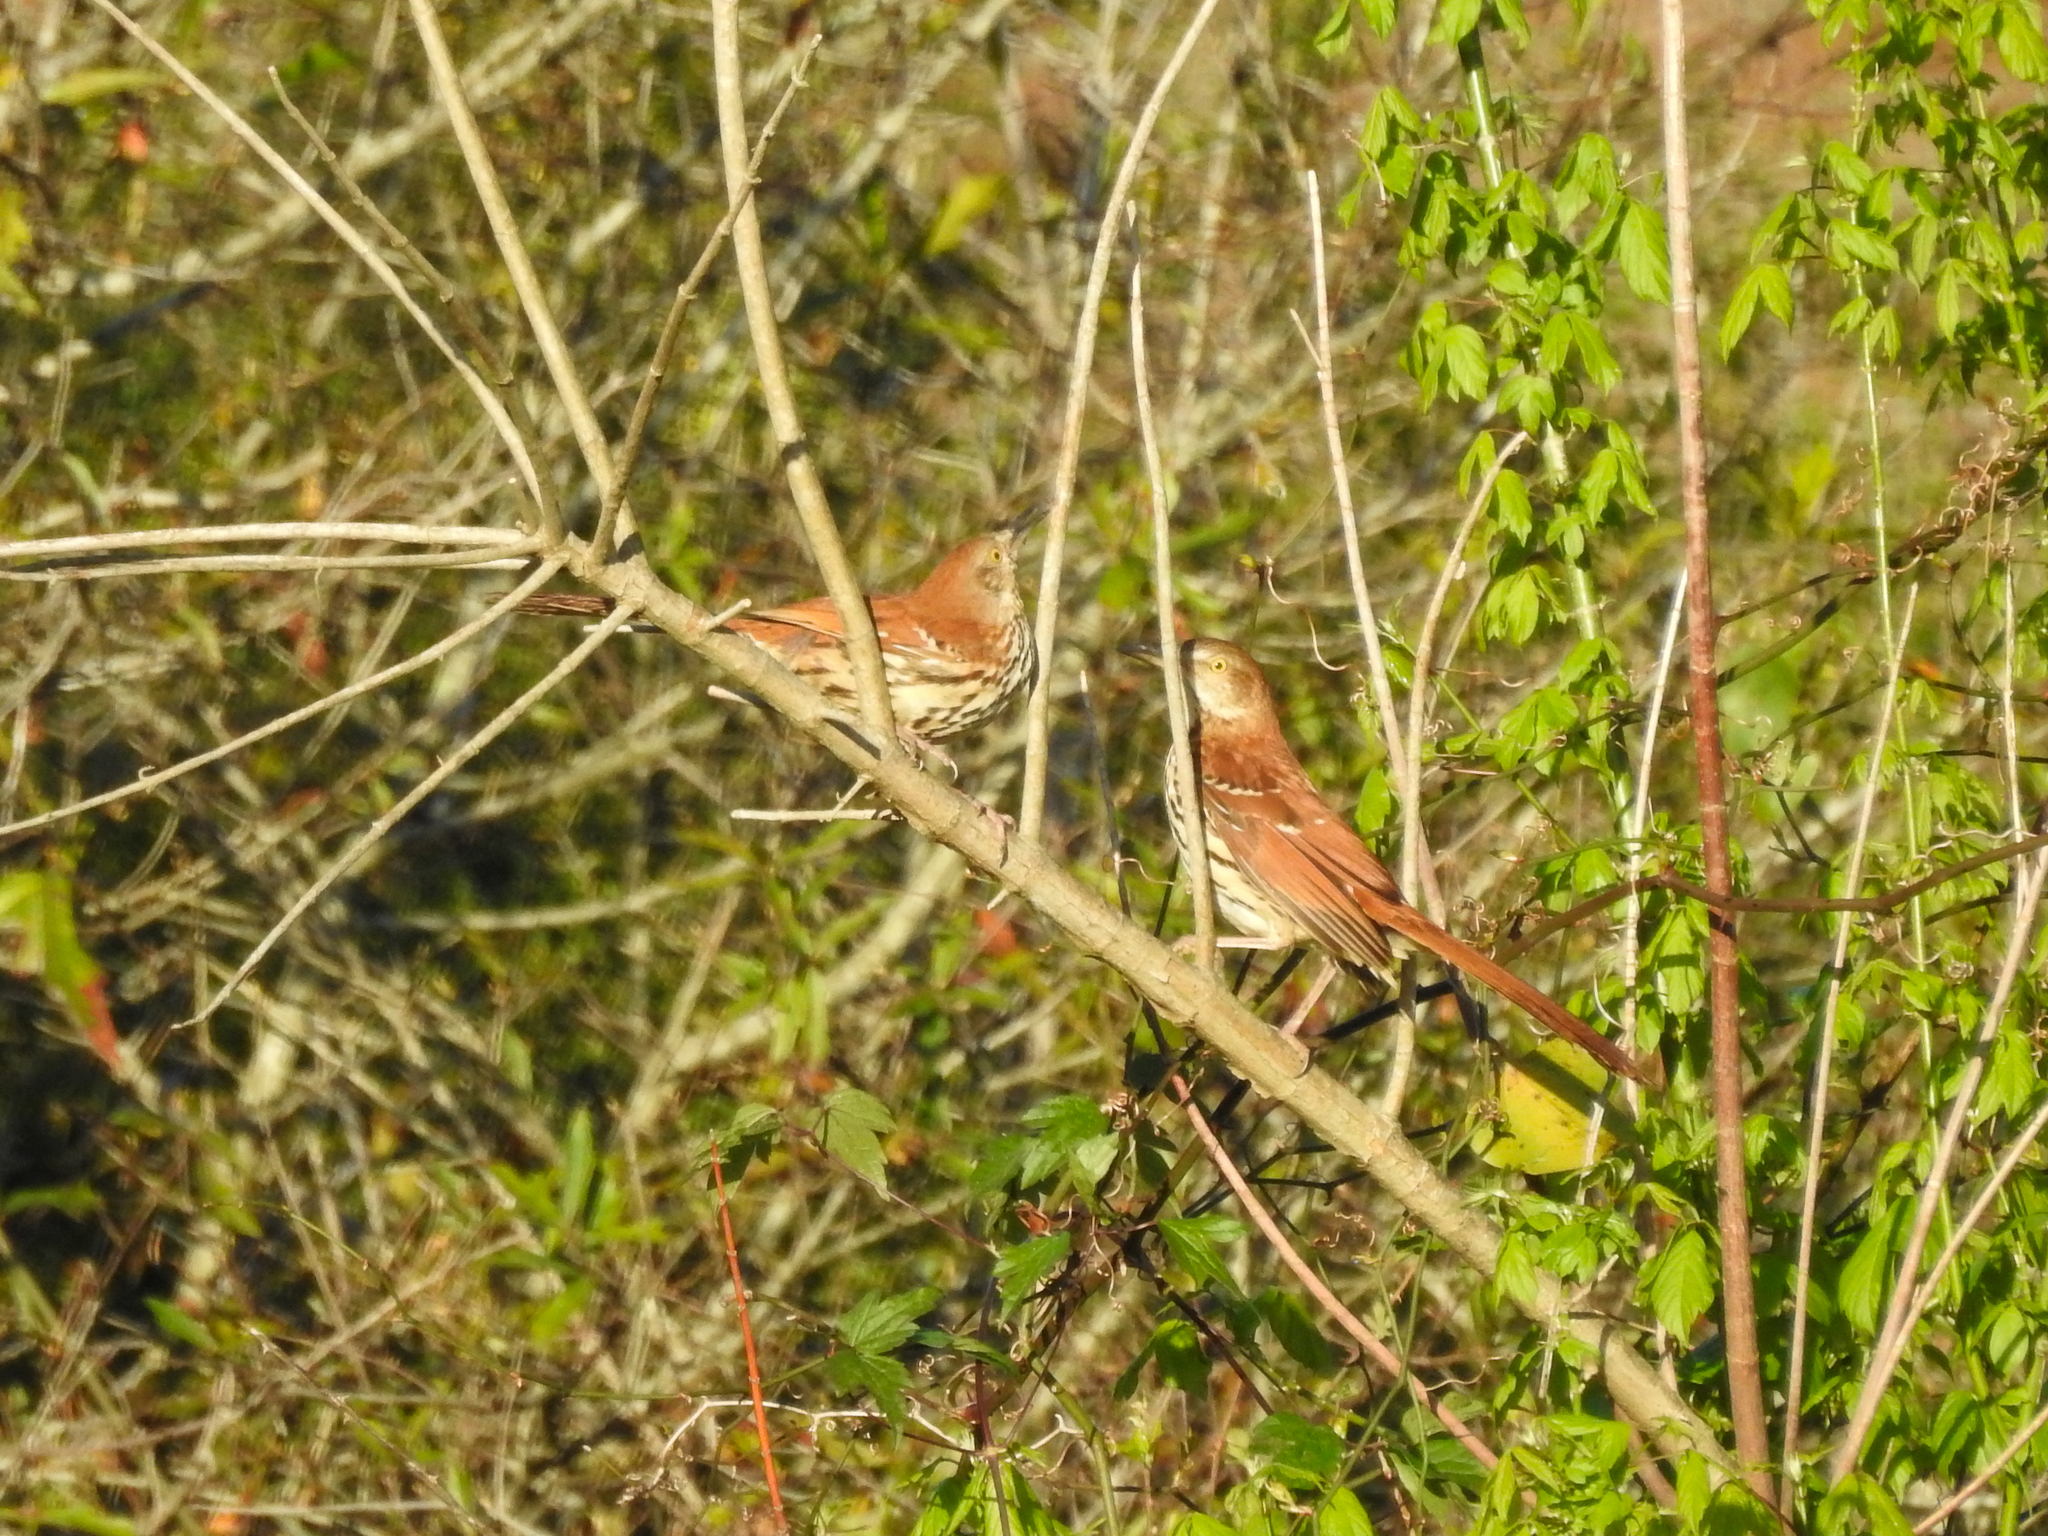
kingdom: Animalia
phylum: Chordata
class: Aves
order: Passeriformes
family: Mimidae
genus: Toxostoma
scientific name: Toxostoma rufum
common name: Brown thrasher
